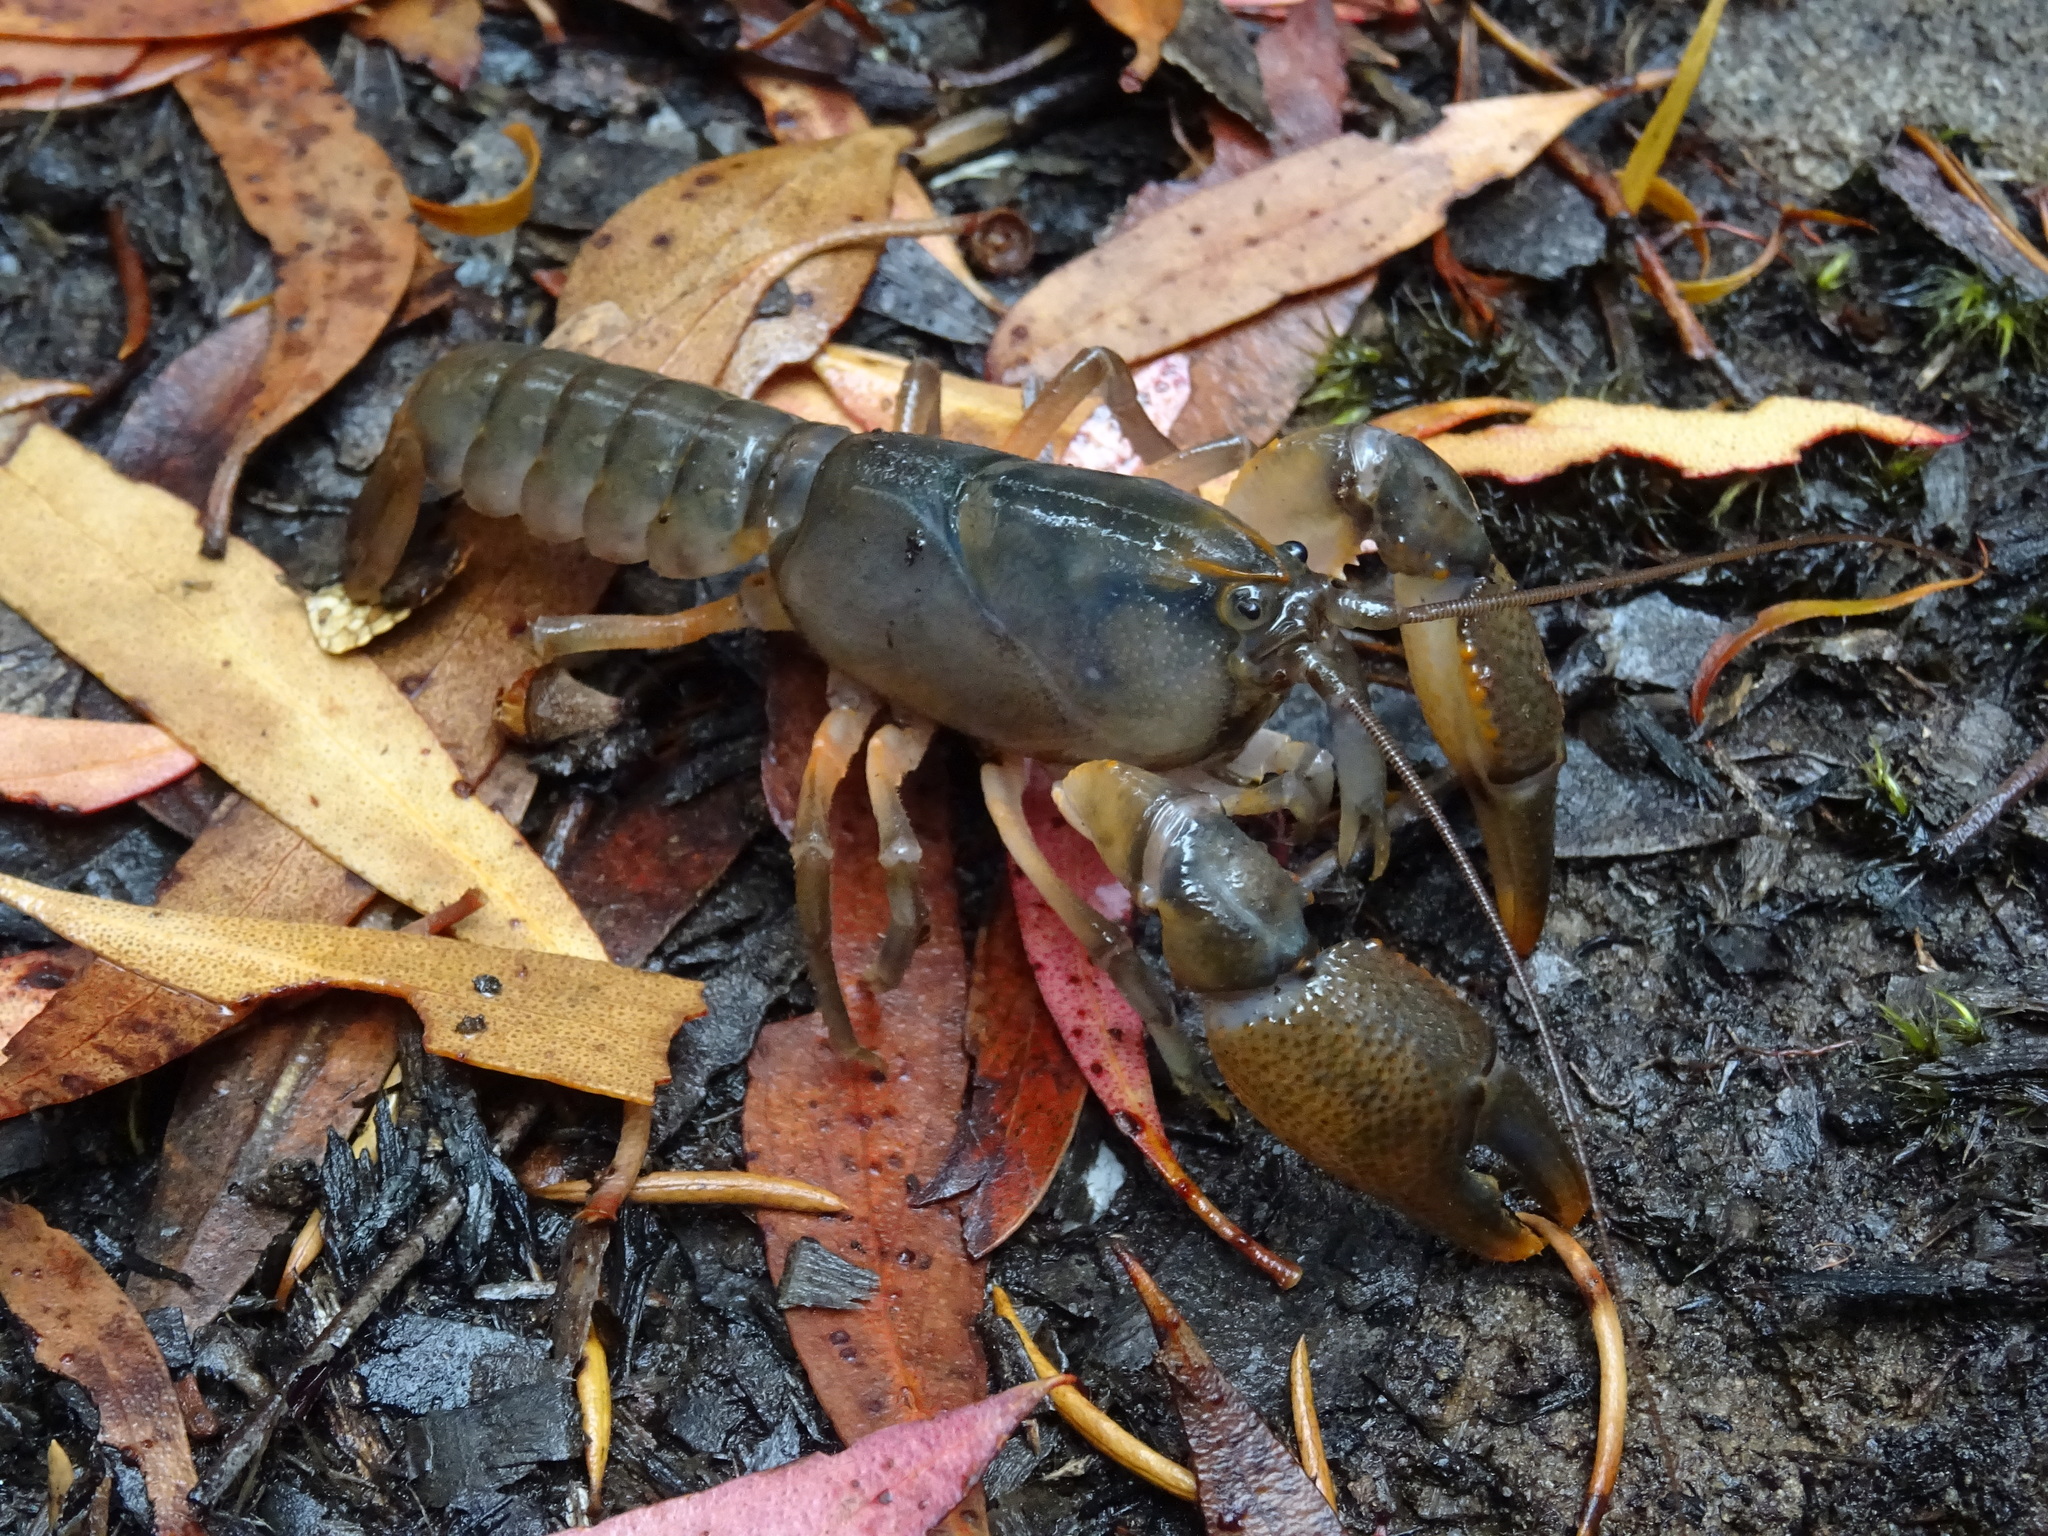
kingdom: Animalia
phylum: Arthropoda
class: Malacostraca
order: Decapoda
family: Parastacidae
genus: Ombrastacoides
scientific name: Ombrastacoides leptomerus
